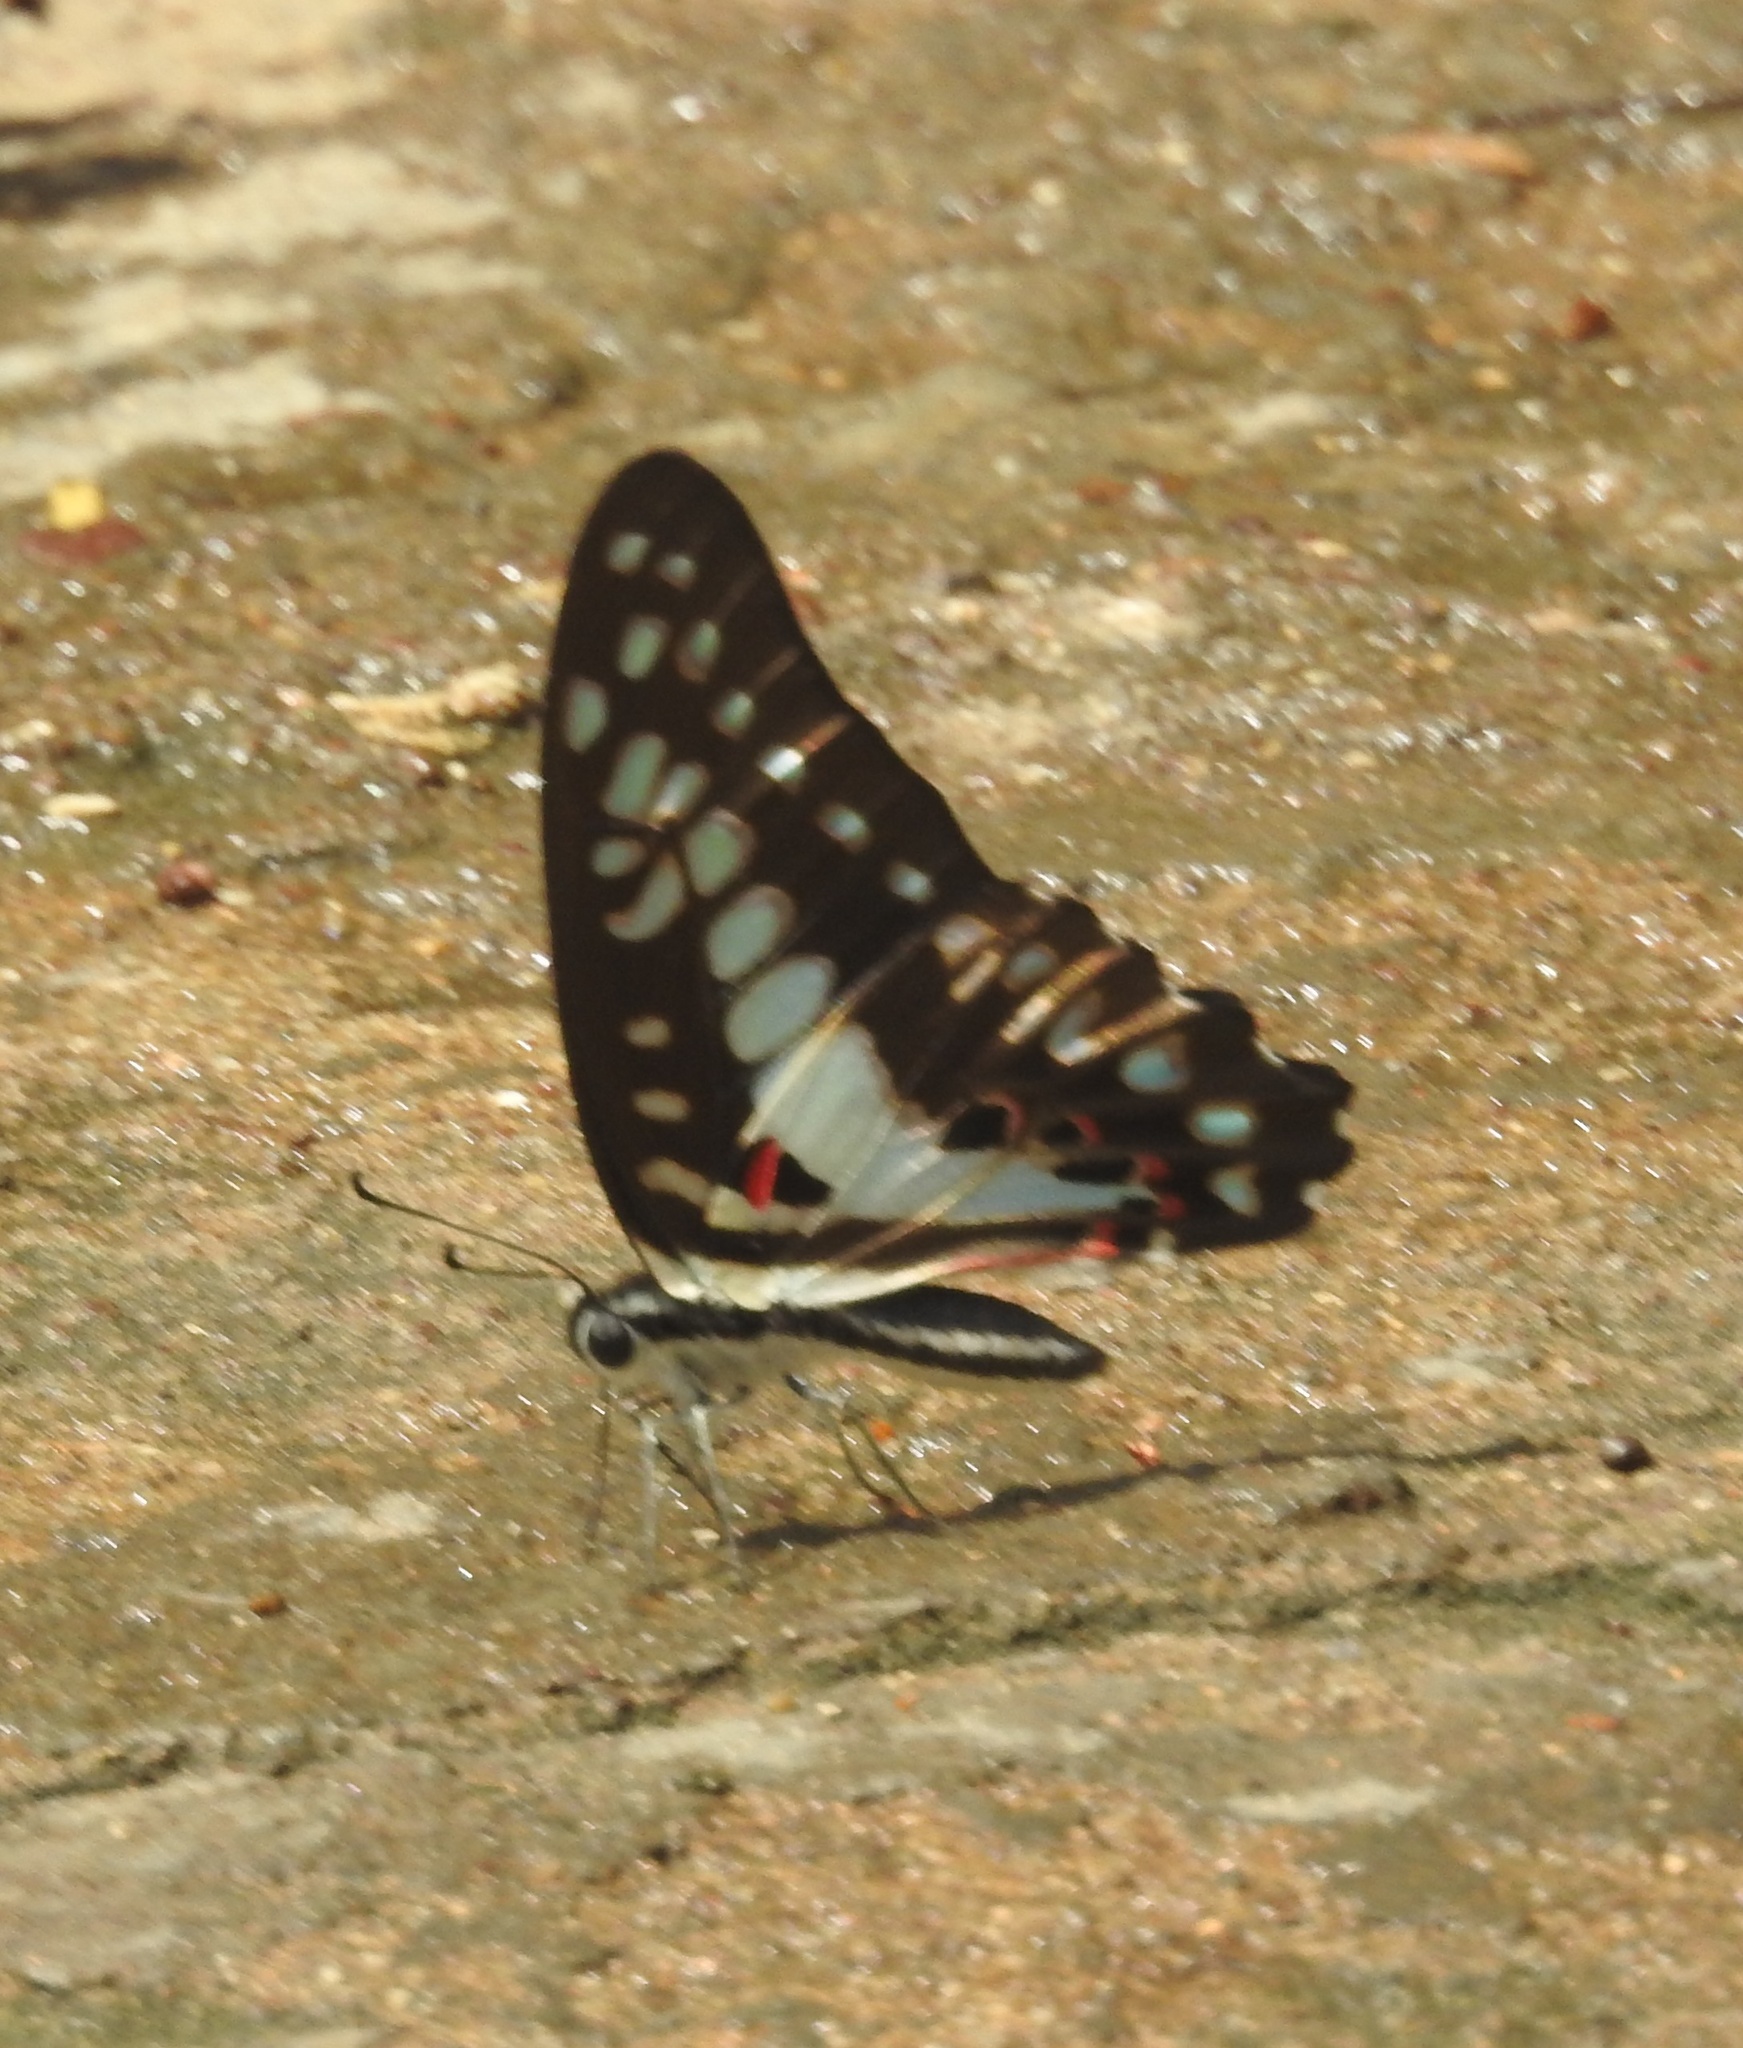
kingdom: Animalia
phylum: Arthropoda
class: Insecta
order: Lepidoptera
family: Papilionidae
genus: Graphium
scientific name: Graphium doson
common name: Common jay
